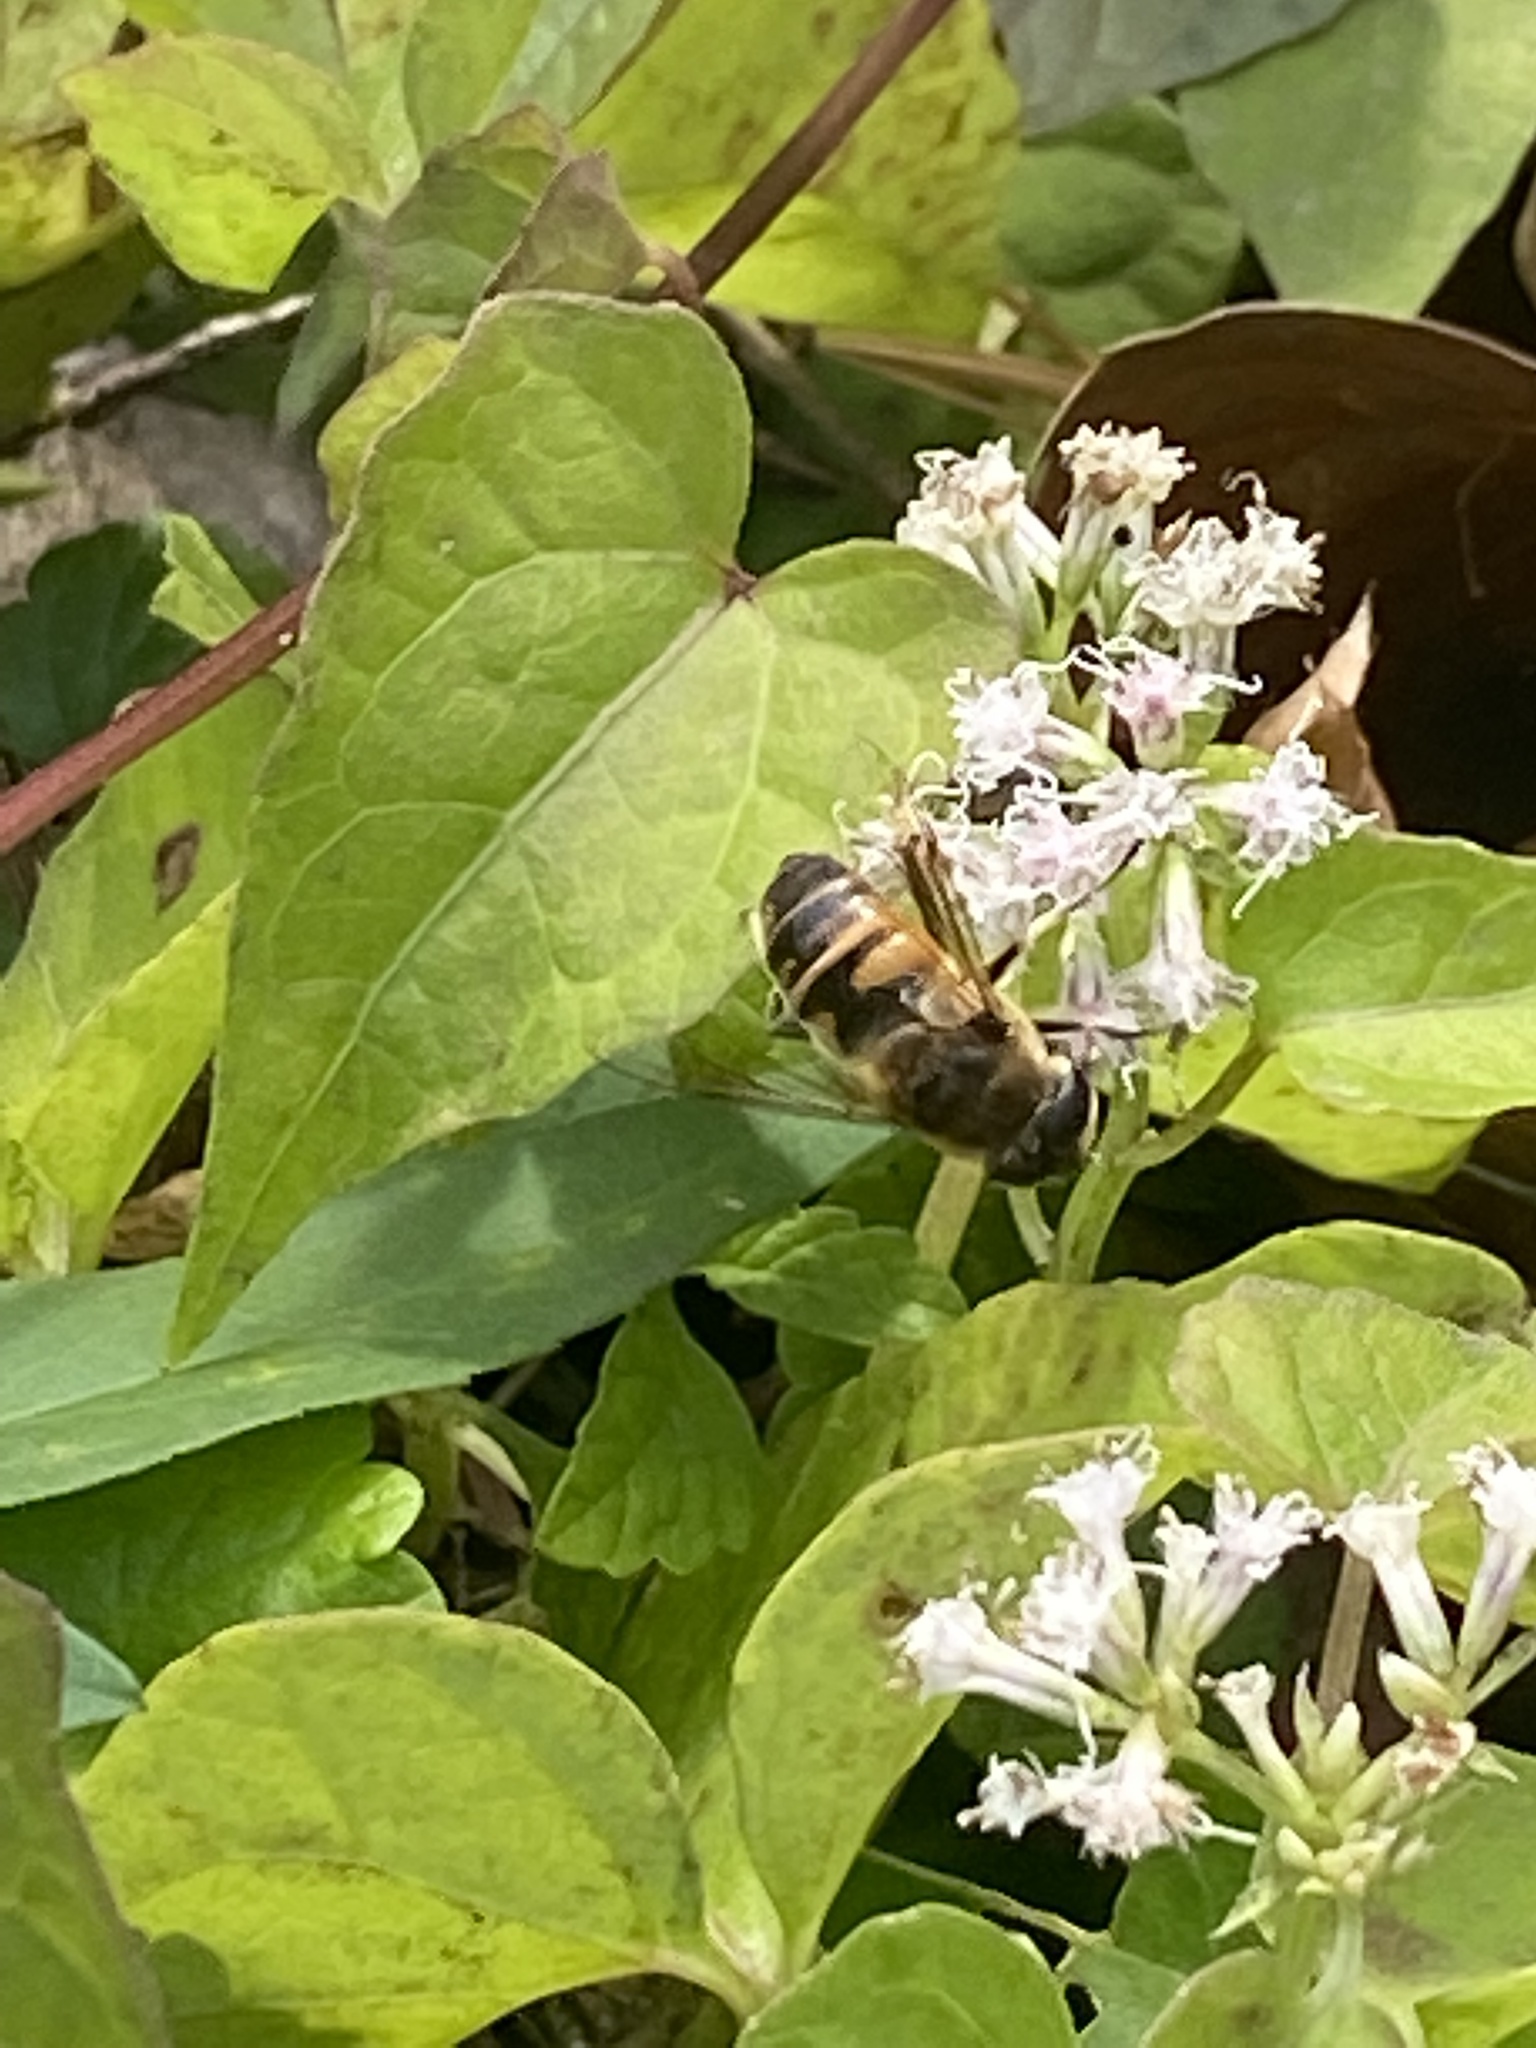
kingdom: Animalia
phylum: Arthropoda
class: Insecta
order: Diptera
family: Syrphidae
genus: Eristalis
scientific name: Eristalis tenax
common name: Drone fly
